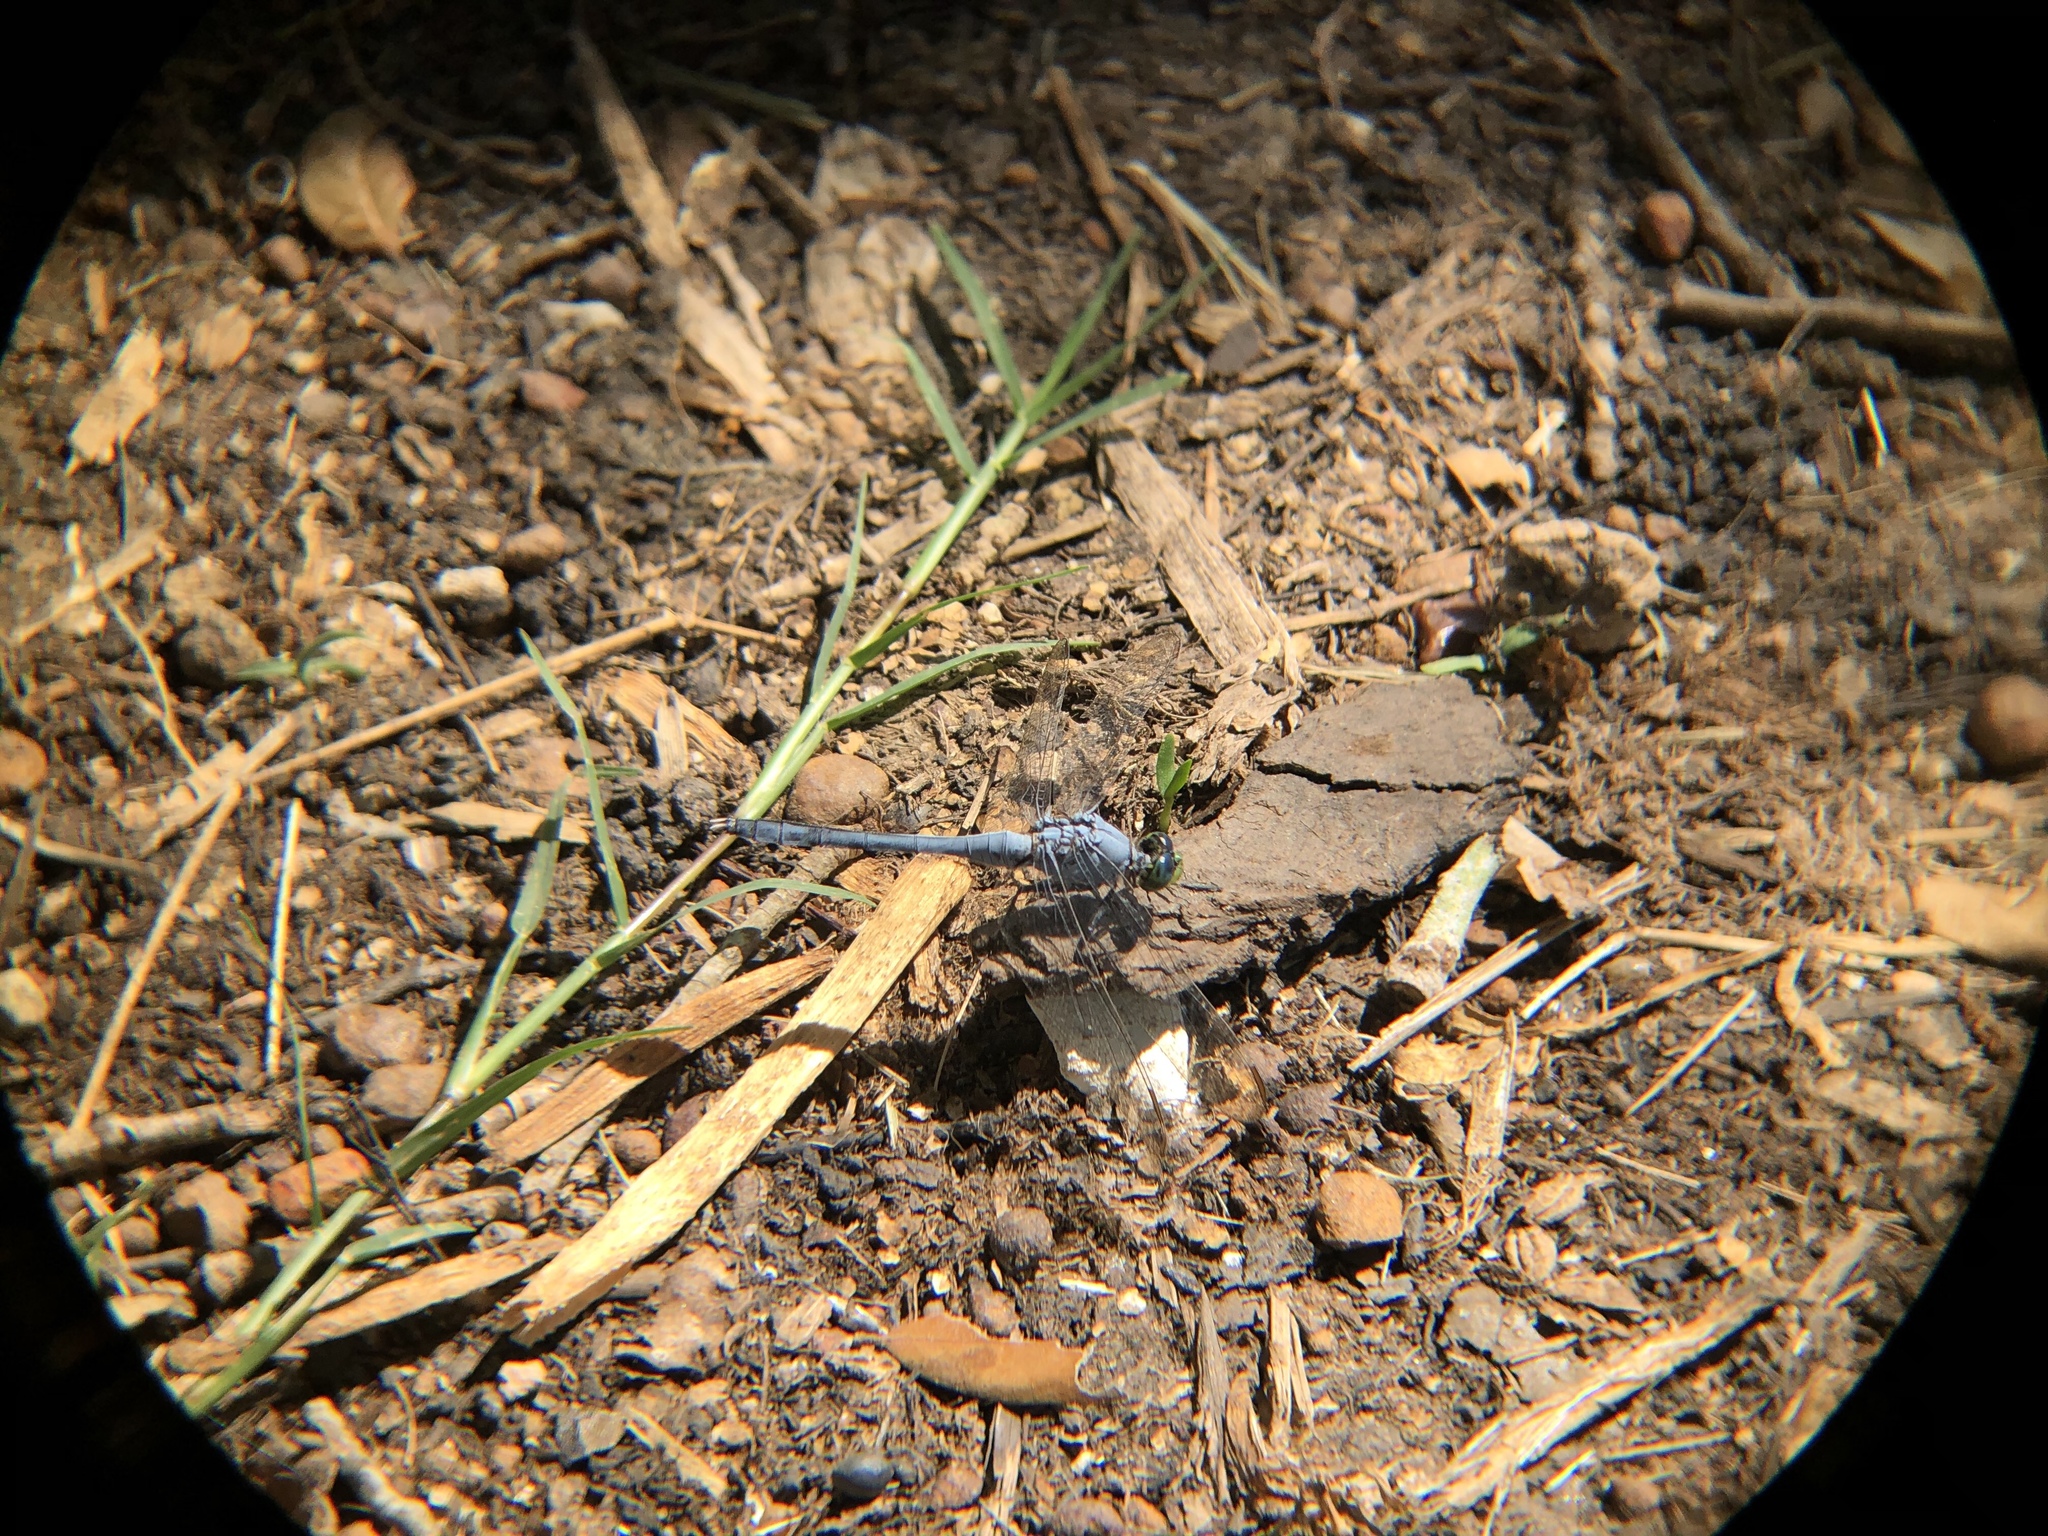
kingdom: Animalia
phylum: Arthropoda
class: Insecta
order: Odonata
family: Libellulidae
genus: Erythemis
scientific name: Erythemis simplicicollis
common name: Eastern pondhawk
